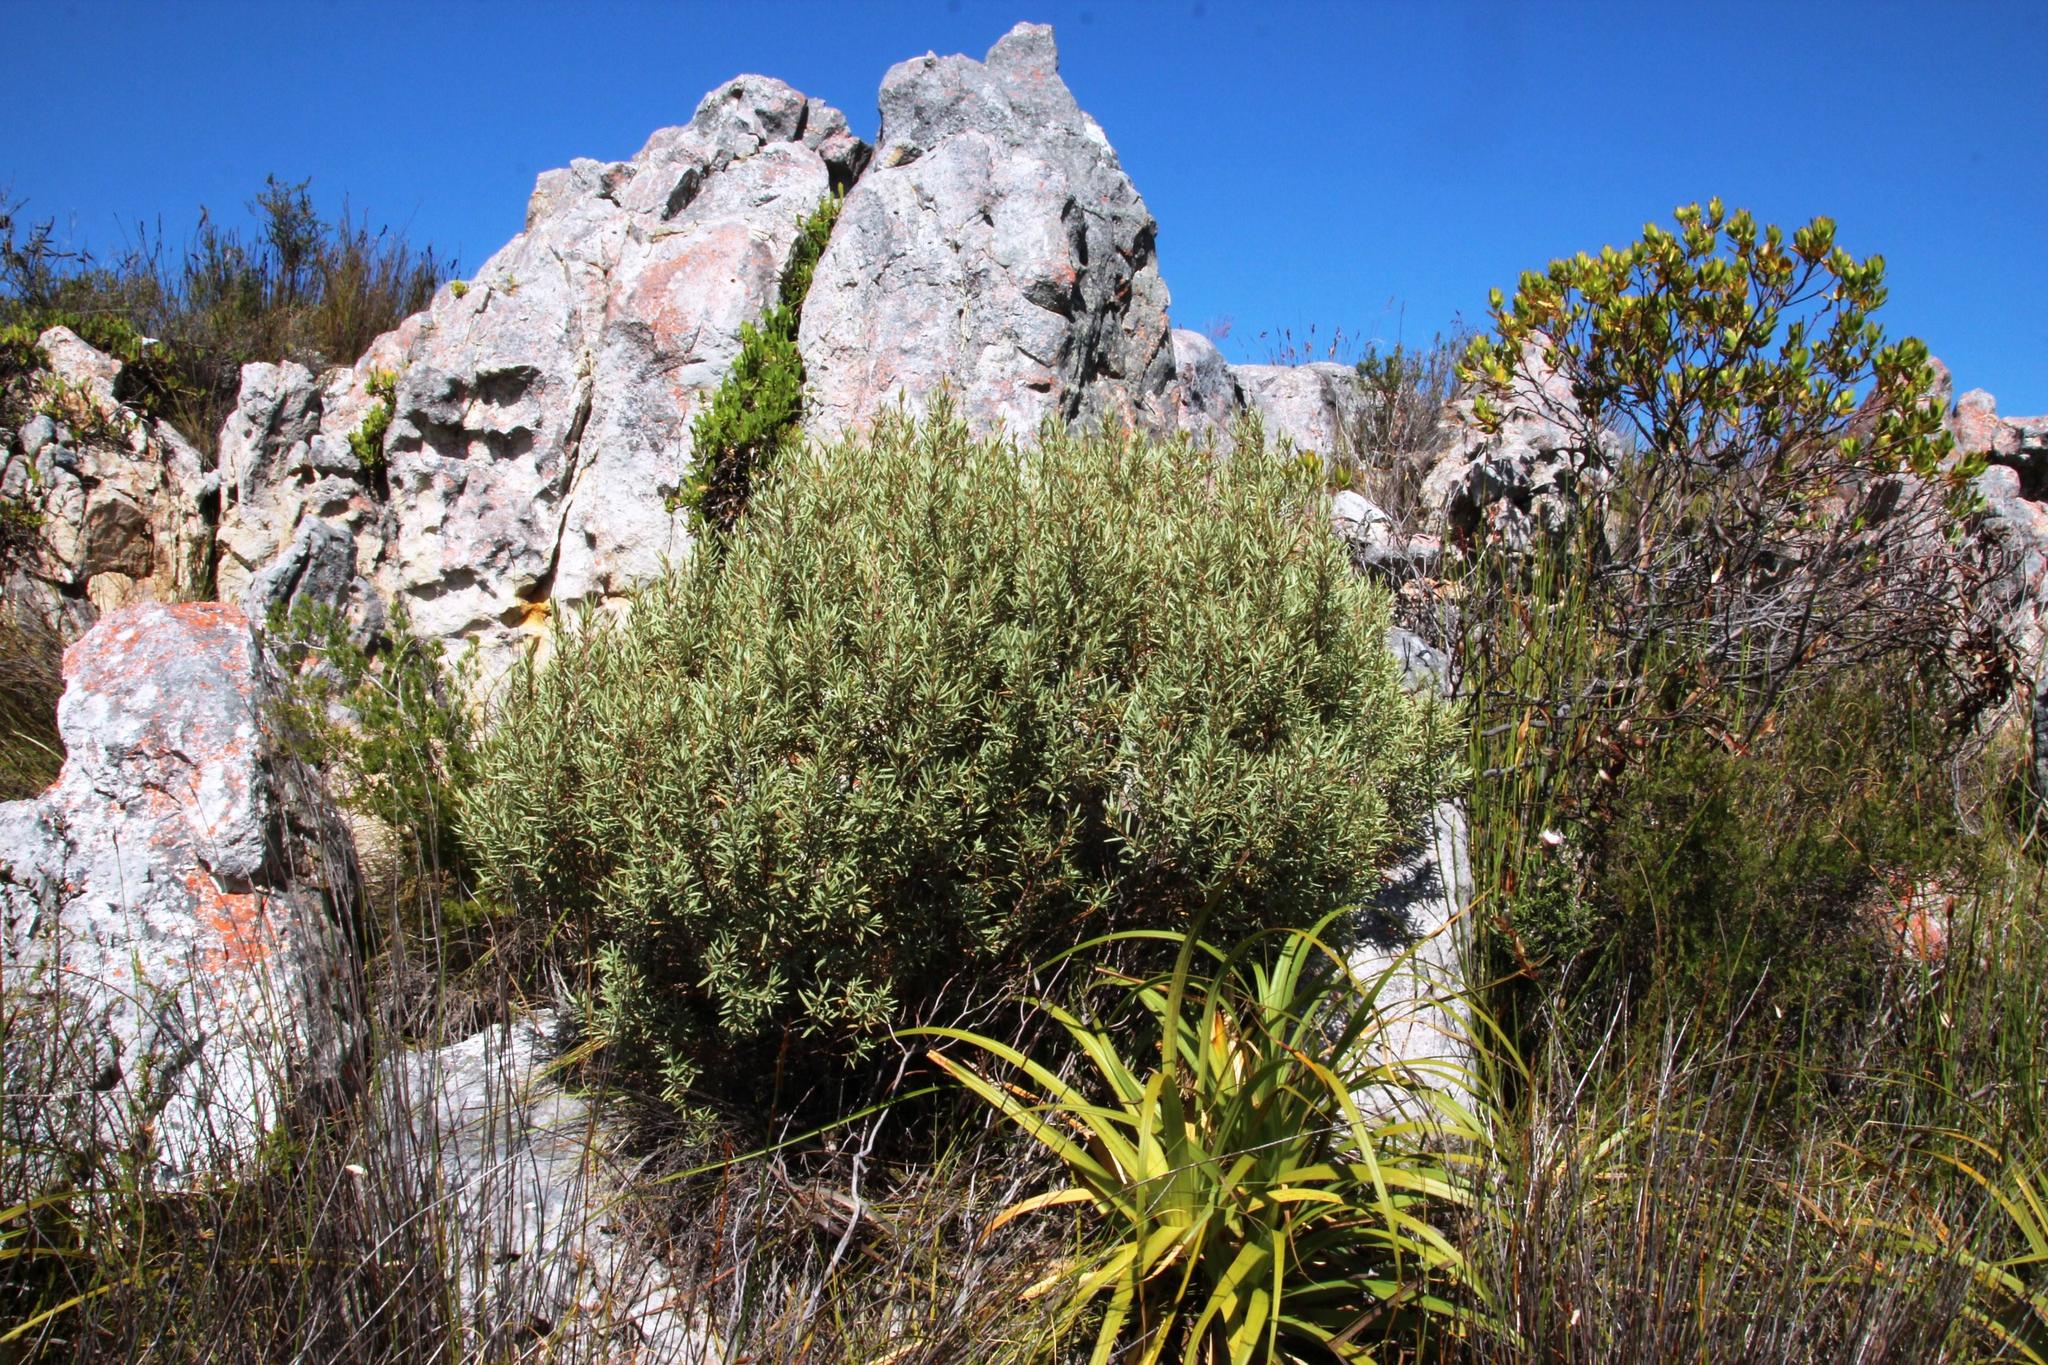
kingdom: Plantae
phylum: Tracheophyta
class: Magnoliopsida
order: Cornales
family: Grubbiaceae
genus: Grubbia
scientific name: Grubbia tomentosa
